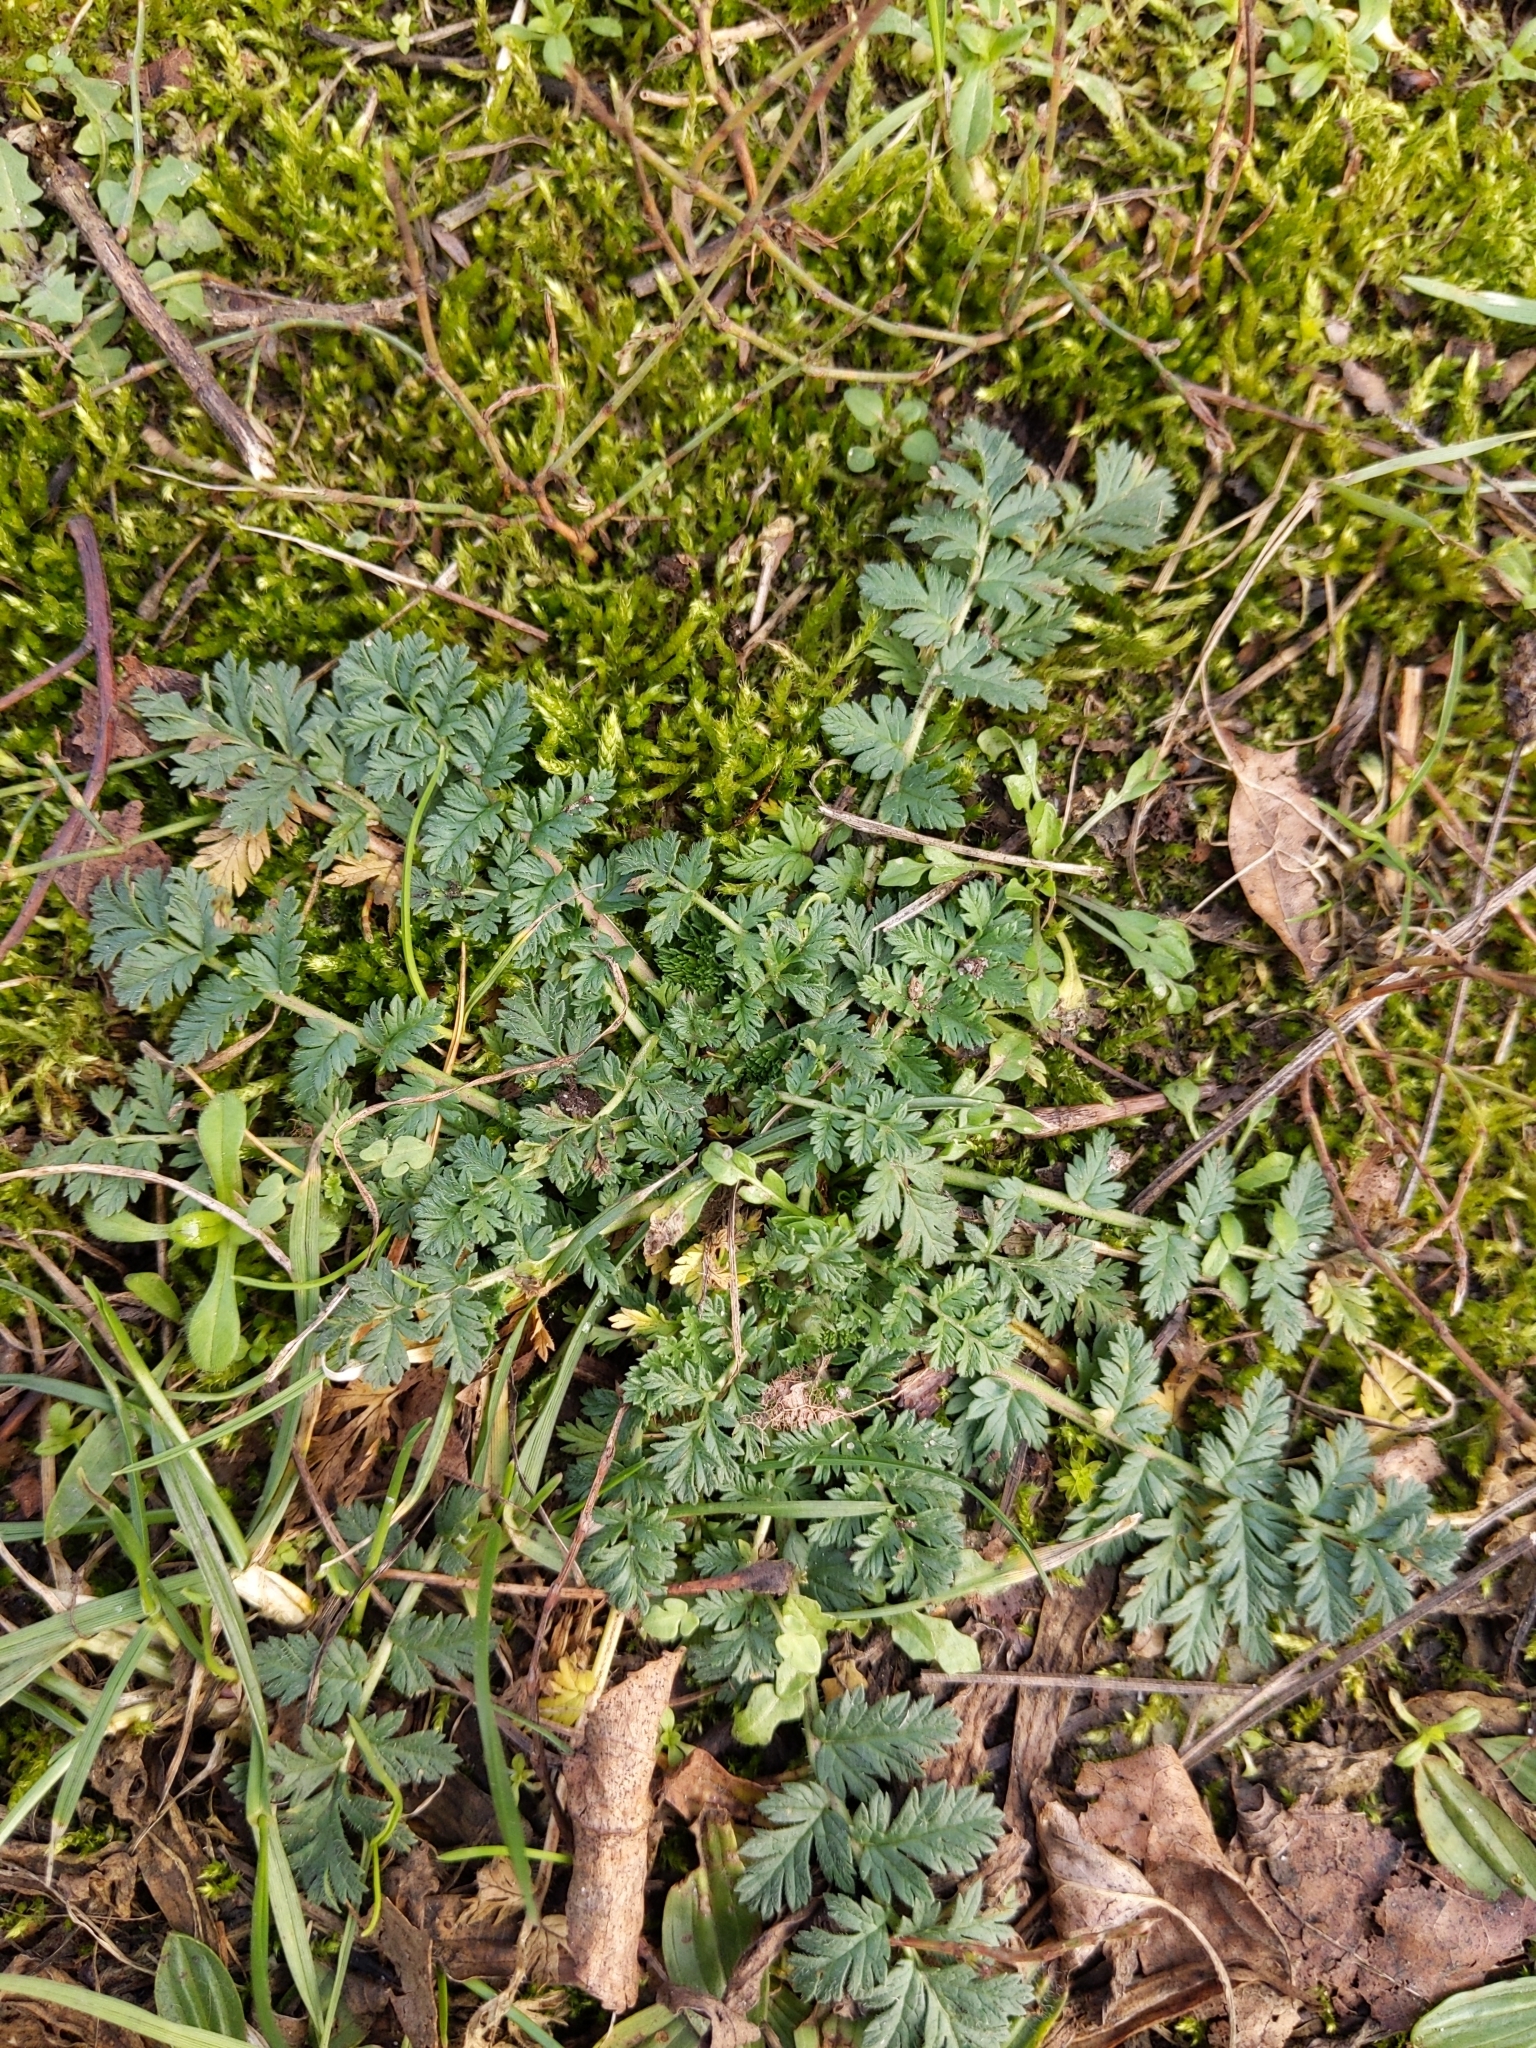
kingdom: Plantae
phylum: Tracheophyta
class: Magnoliopsida
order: Geraniales
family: Geraniaceae
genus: Erodium
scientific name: Erodium cicutarium
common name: Common stork's-bill
